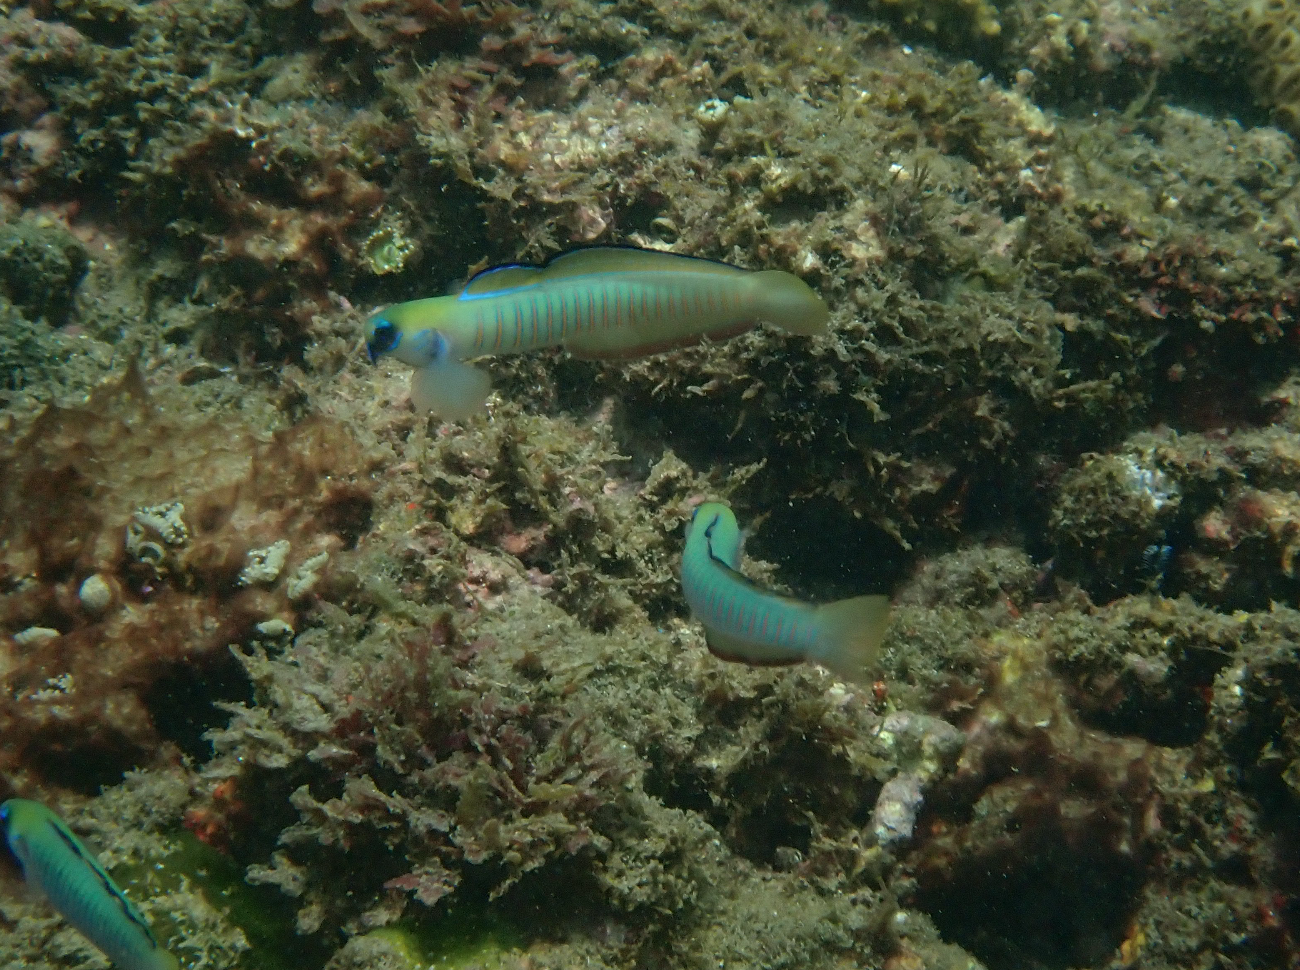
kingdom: Animalia
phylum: Chordata
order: Perciformes
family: Microdesmidae
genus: Ptereleotris
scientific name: Ptereleotris zebra
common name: Chinese zebra goby
